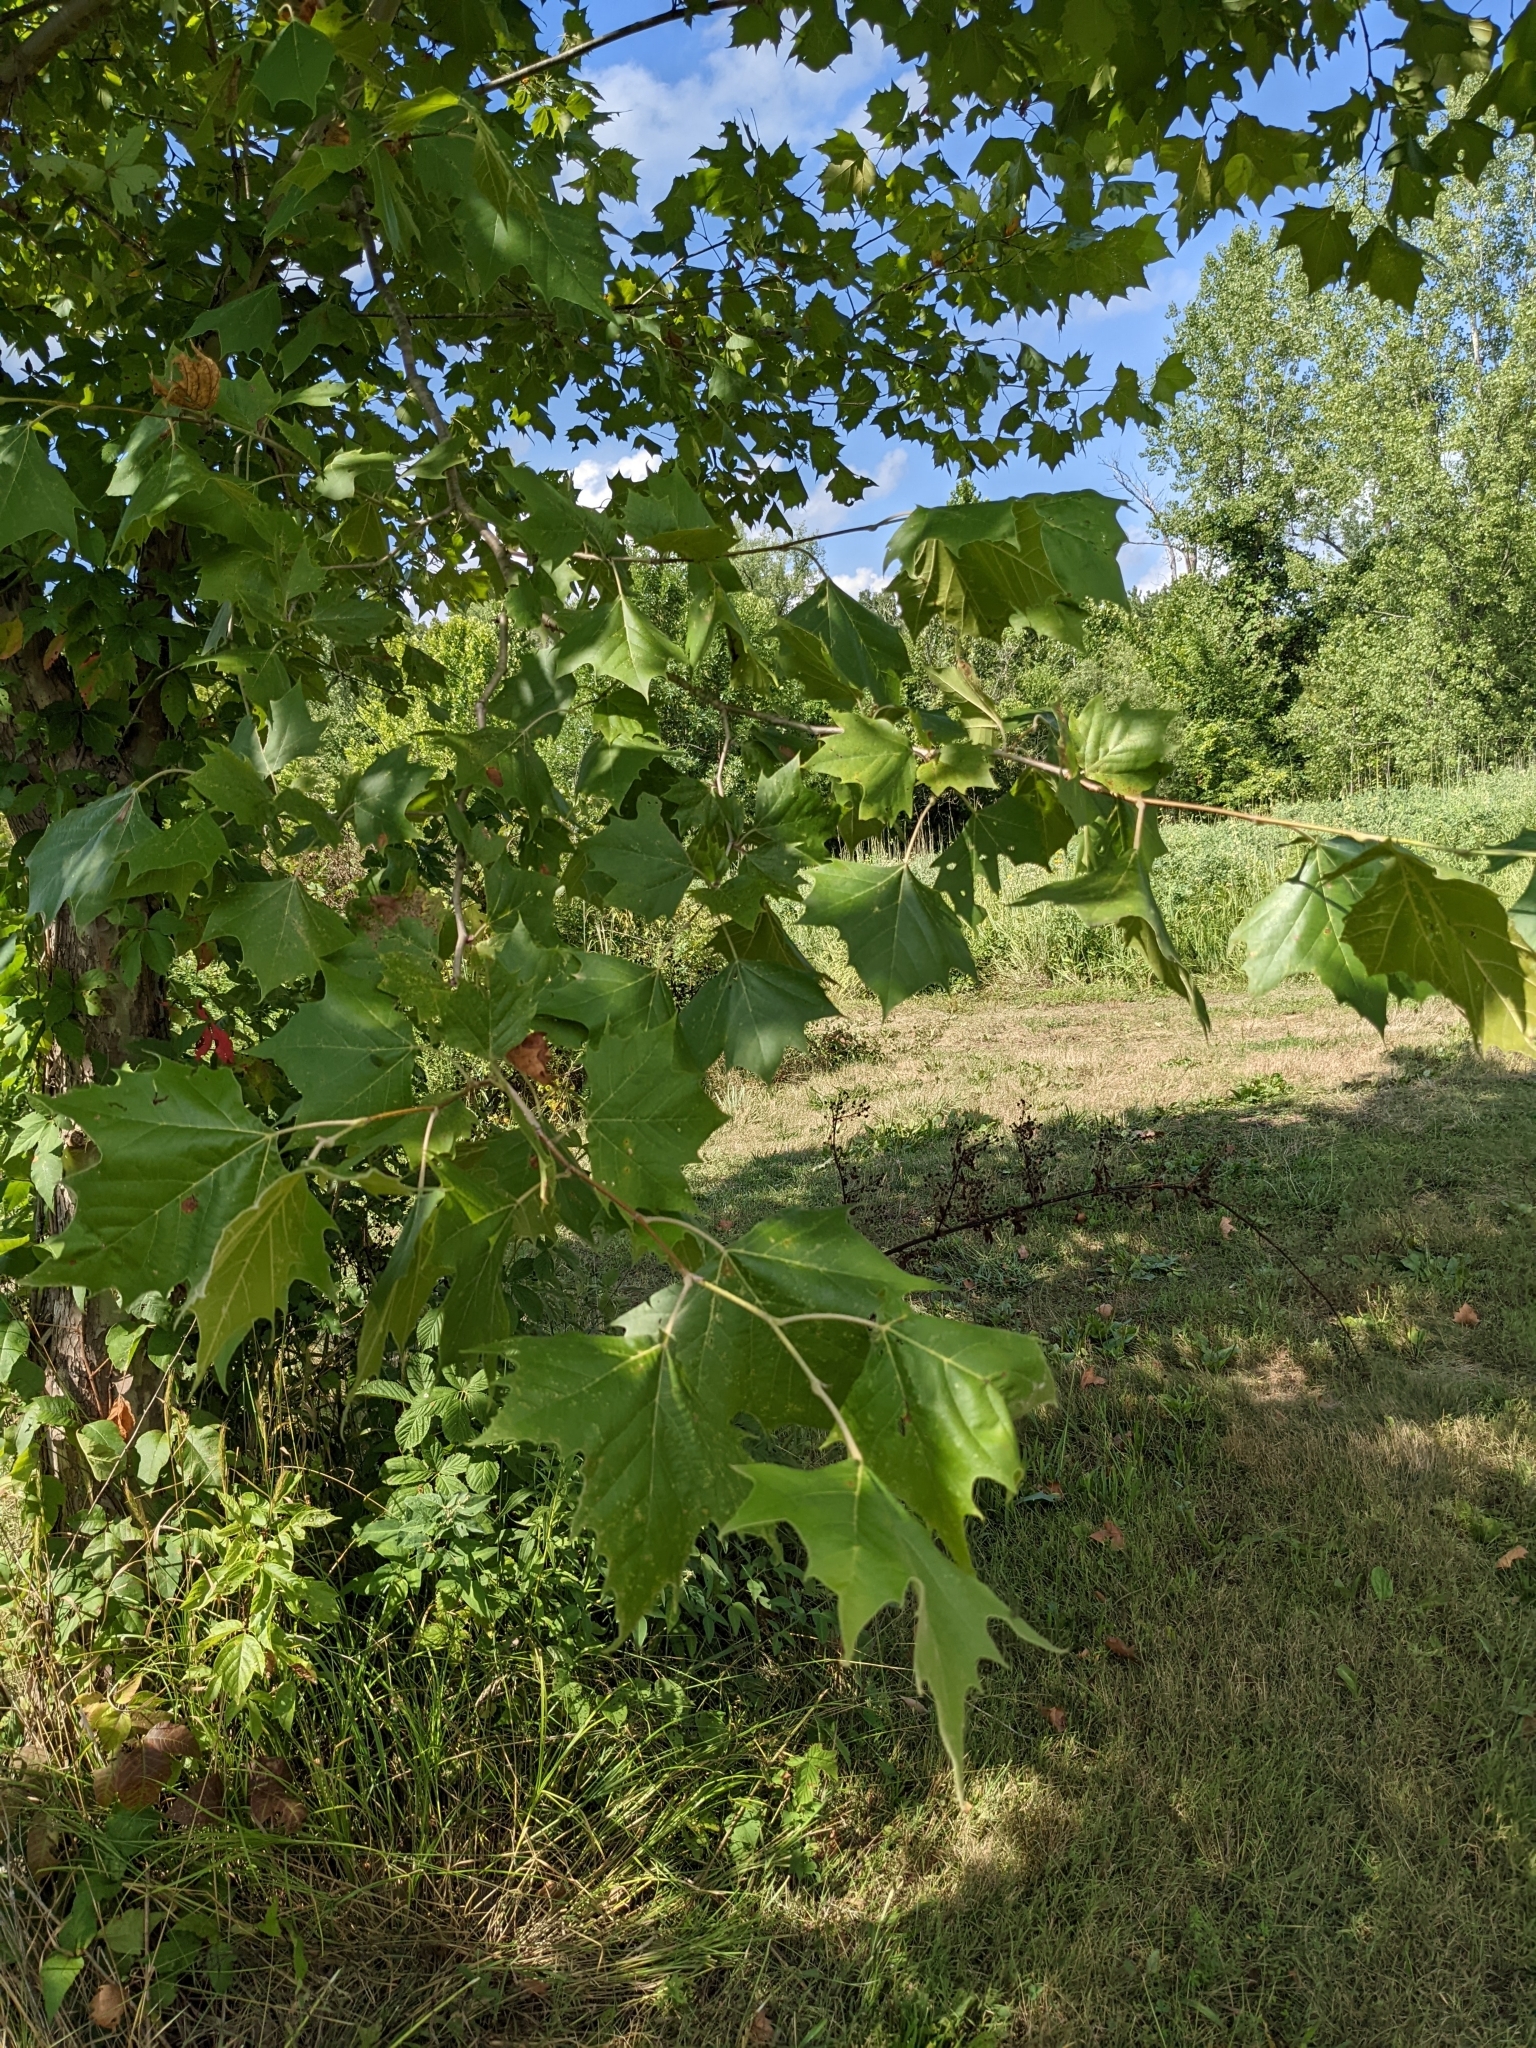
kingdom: Plantae
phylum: Tracheophyta
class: Magnoliopsida
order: Proteales
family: Platanaceae
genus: Platanus
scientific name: Platanus occidentalis
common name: American sycamore
